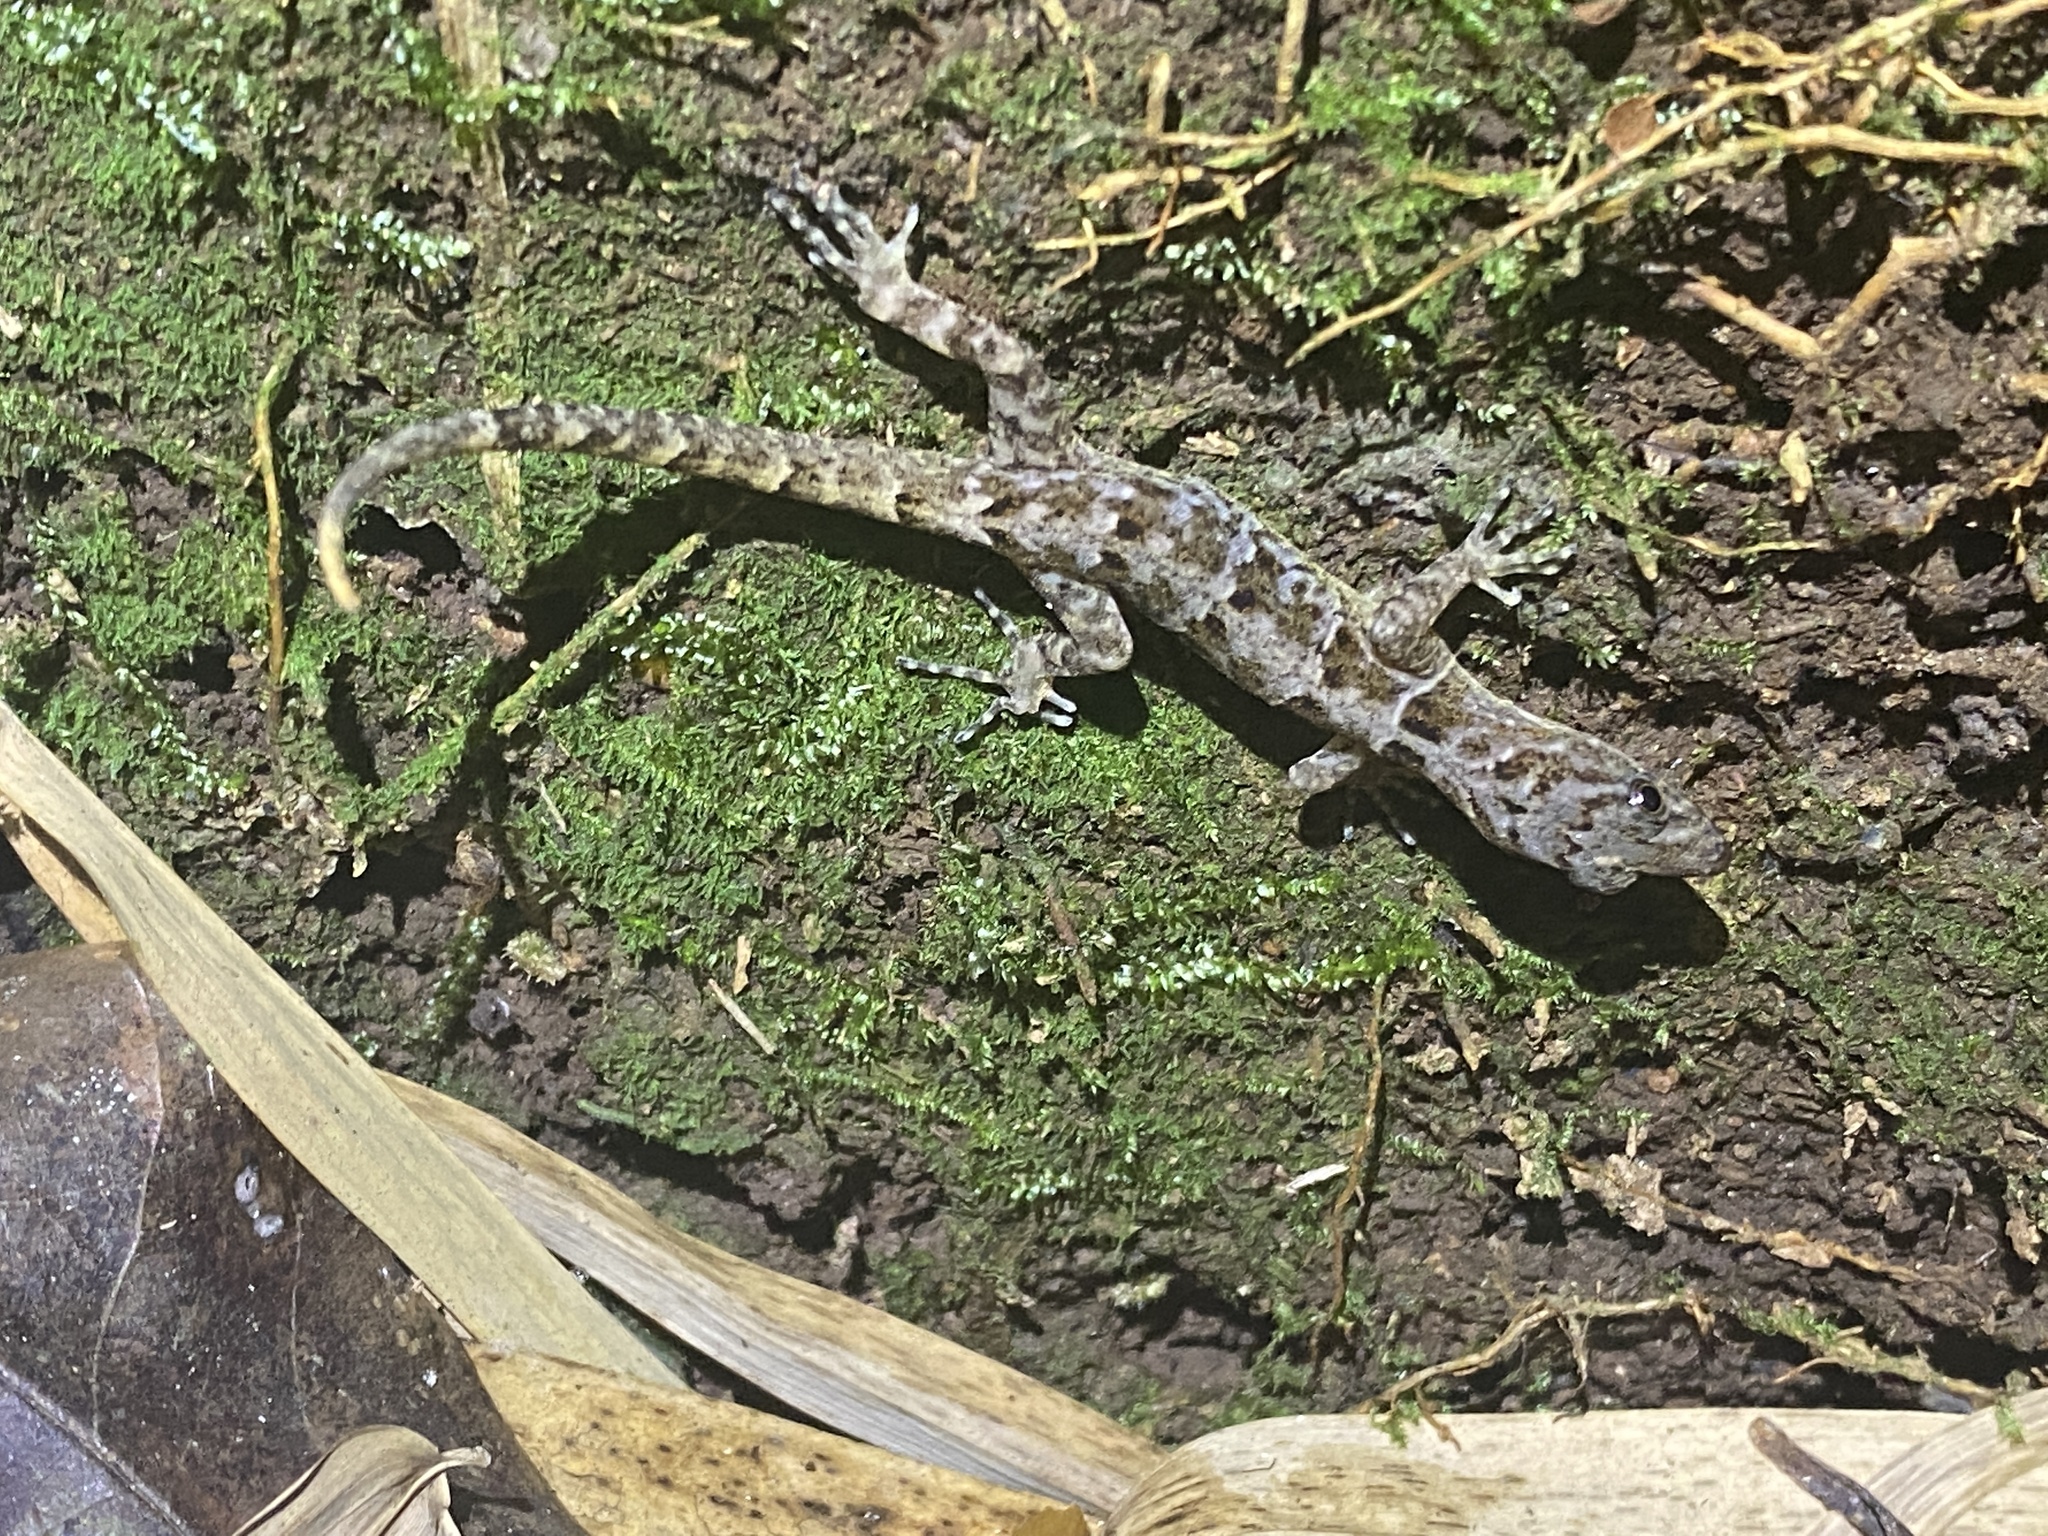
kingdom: Animalia
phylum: Chordata
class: Squamata
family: Sphaerodactylidae
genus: Gonatodes
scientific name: Gonatodes ceciliae
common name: Brilliant south american gecko
